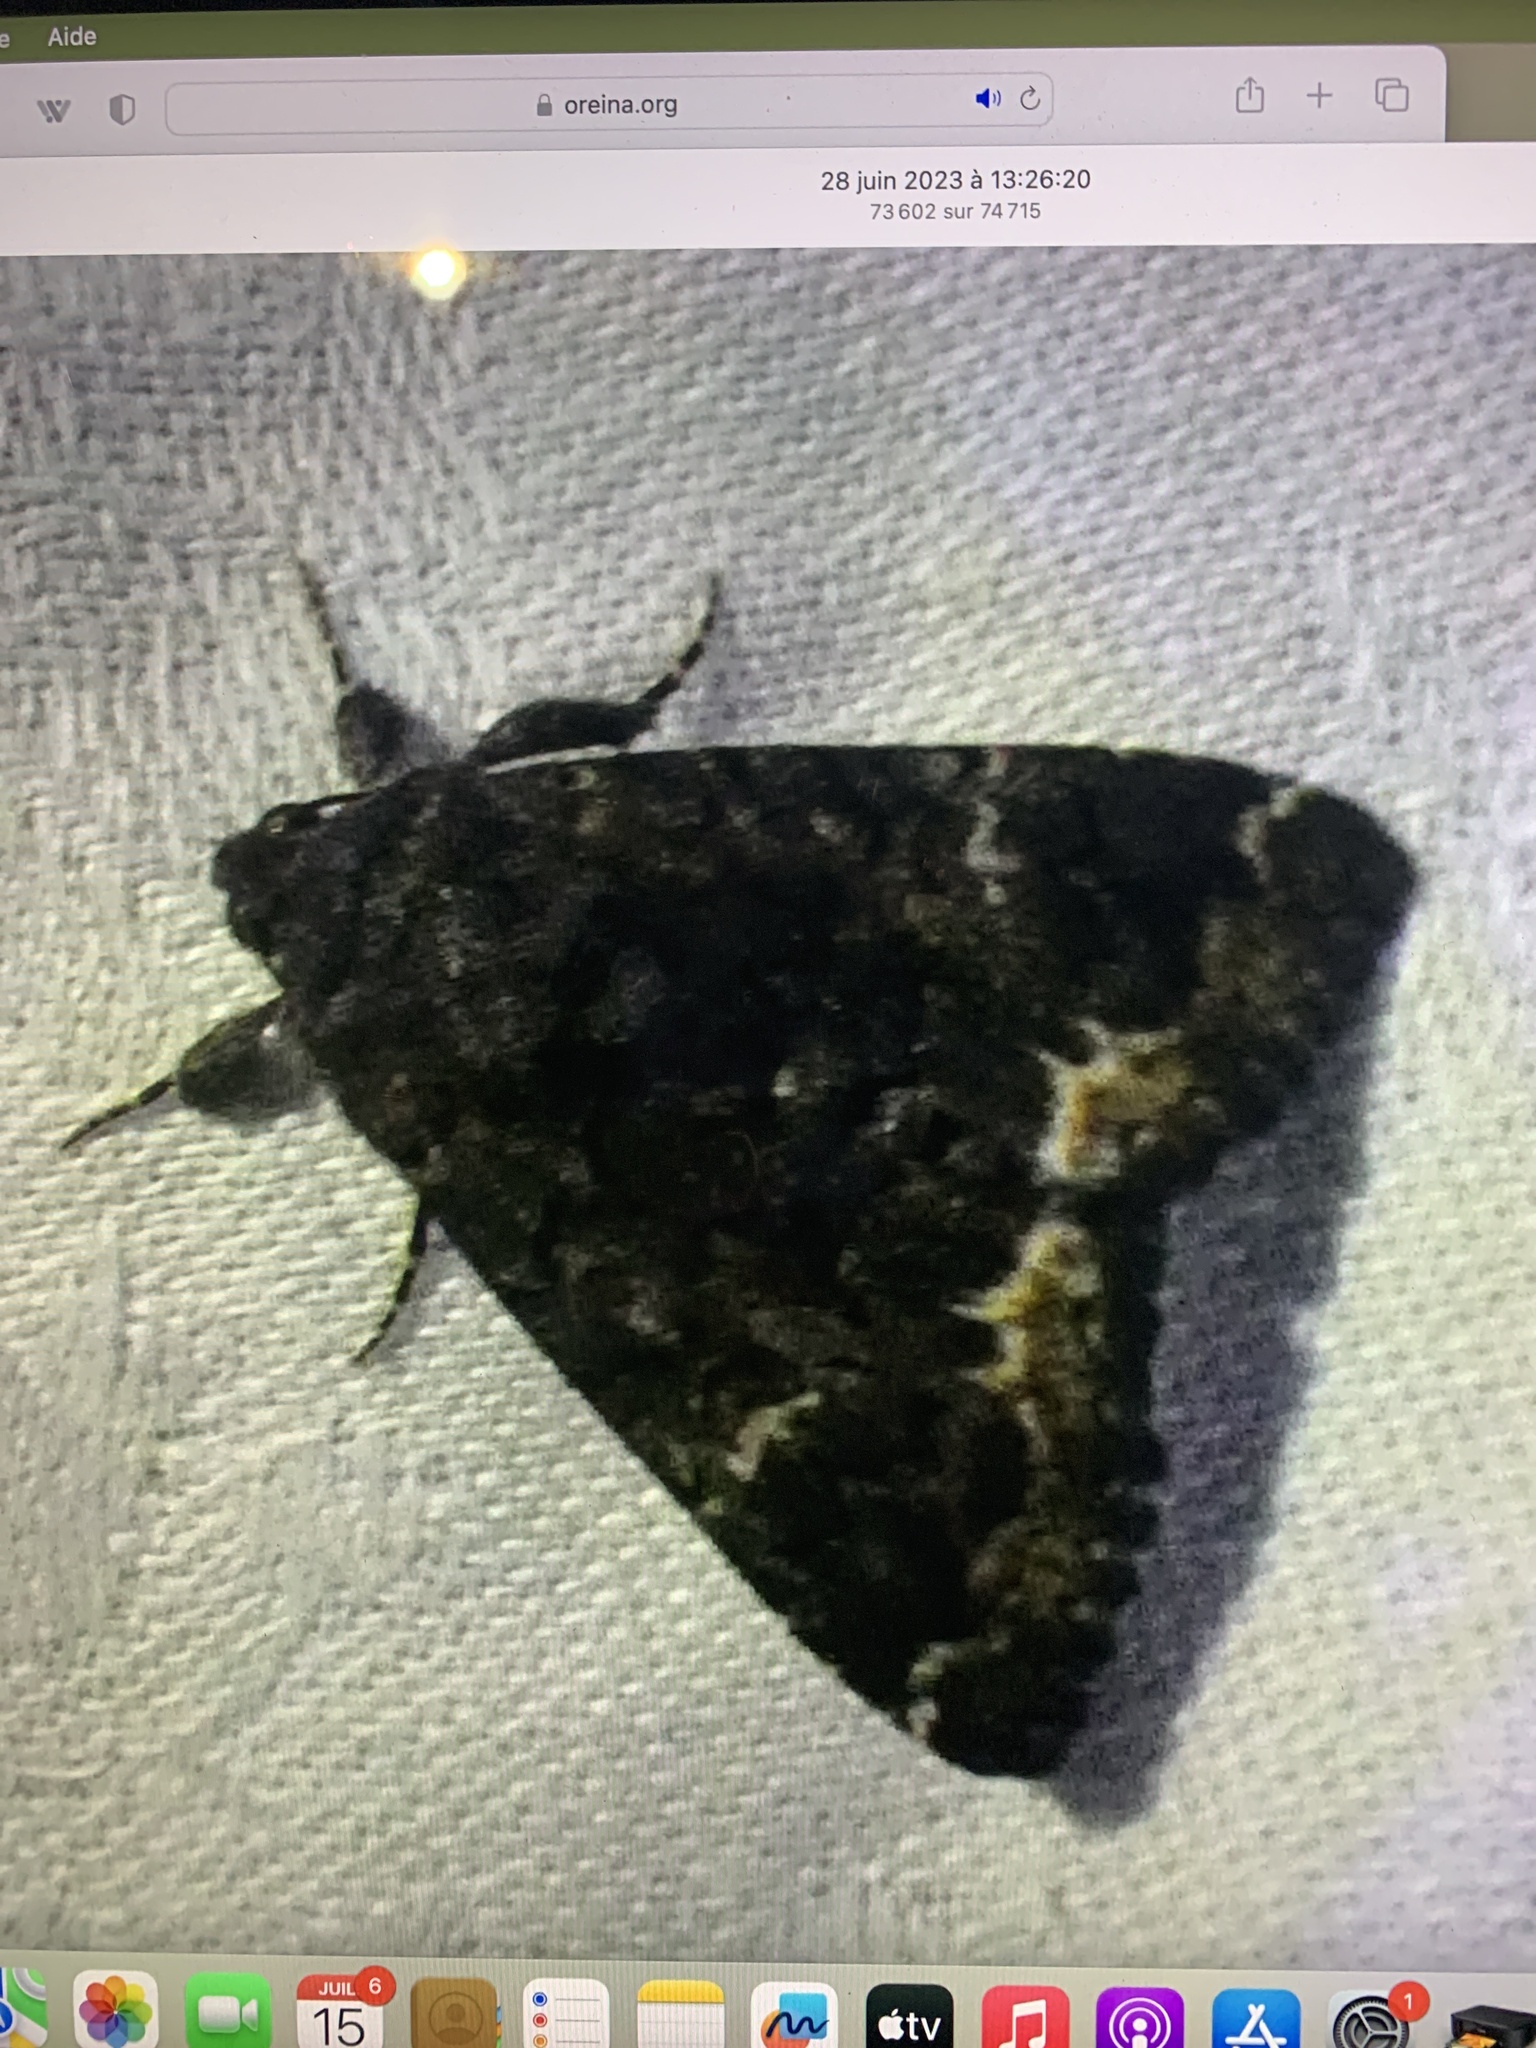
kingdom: Animalia
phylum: Arthropoda
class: Insecta
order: Lepidoptera
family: Erebidae
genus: Catephia
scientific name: Catephia alchymista
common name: Alchymist
